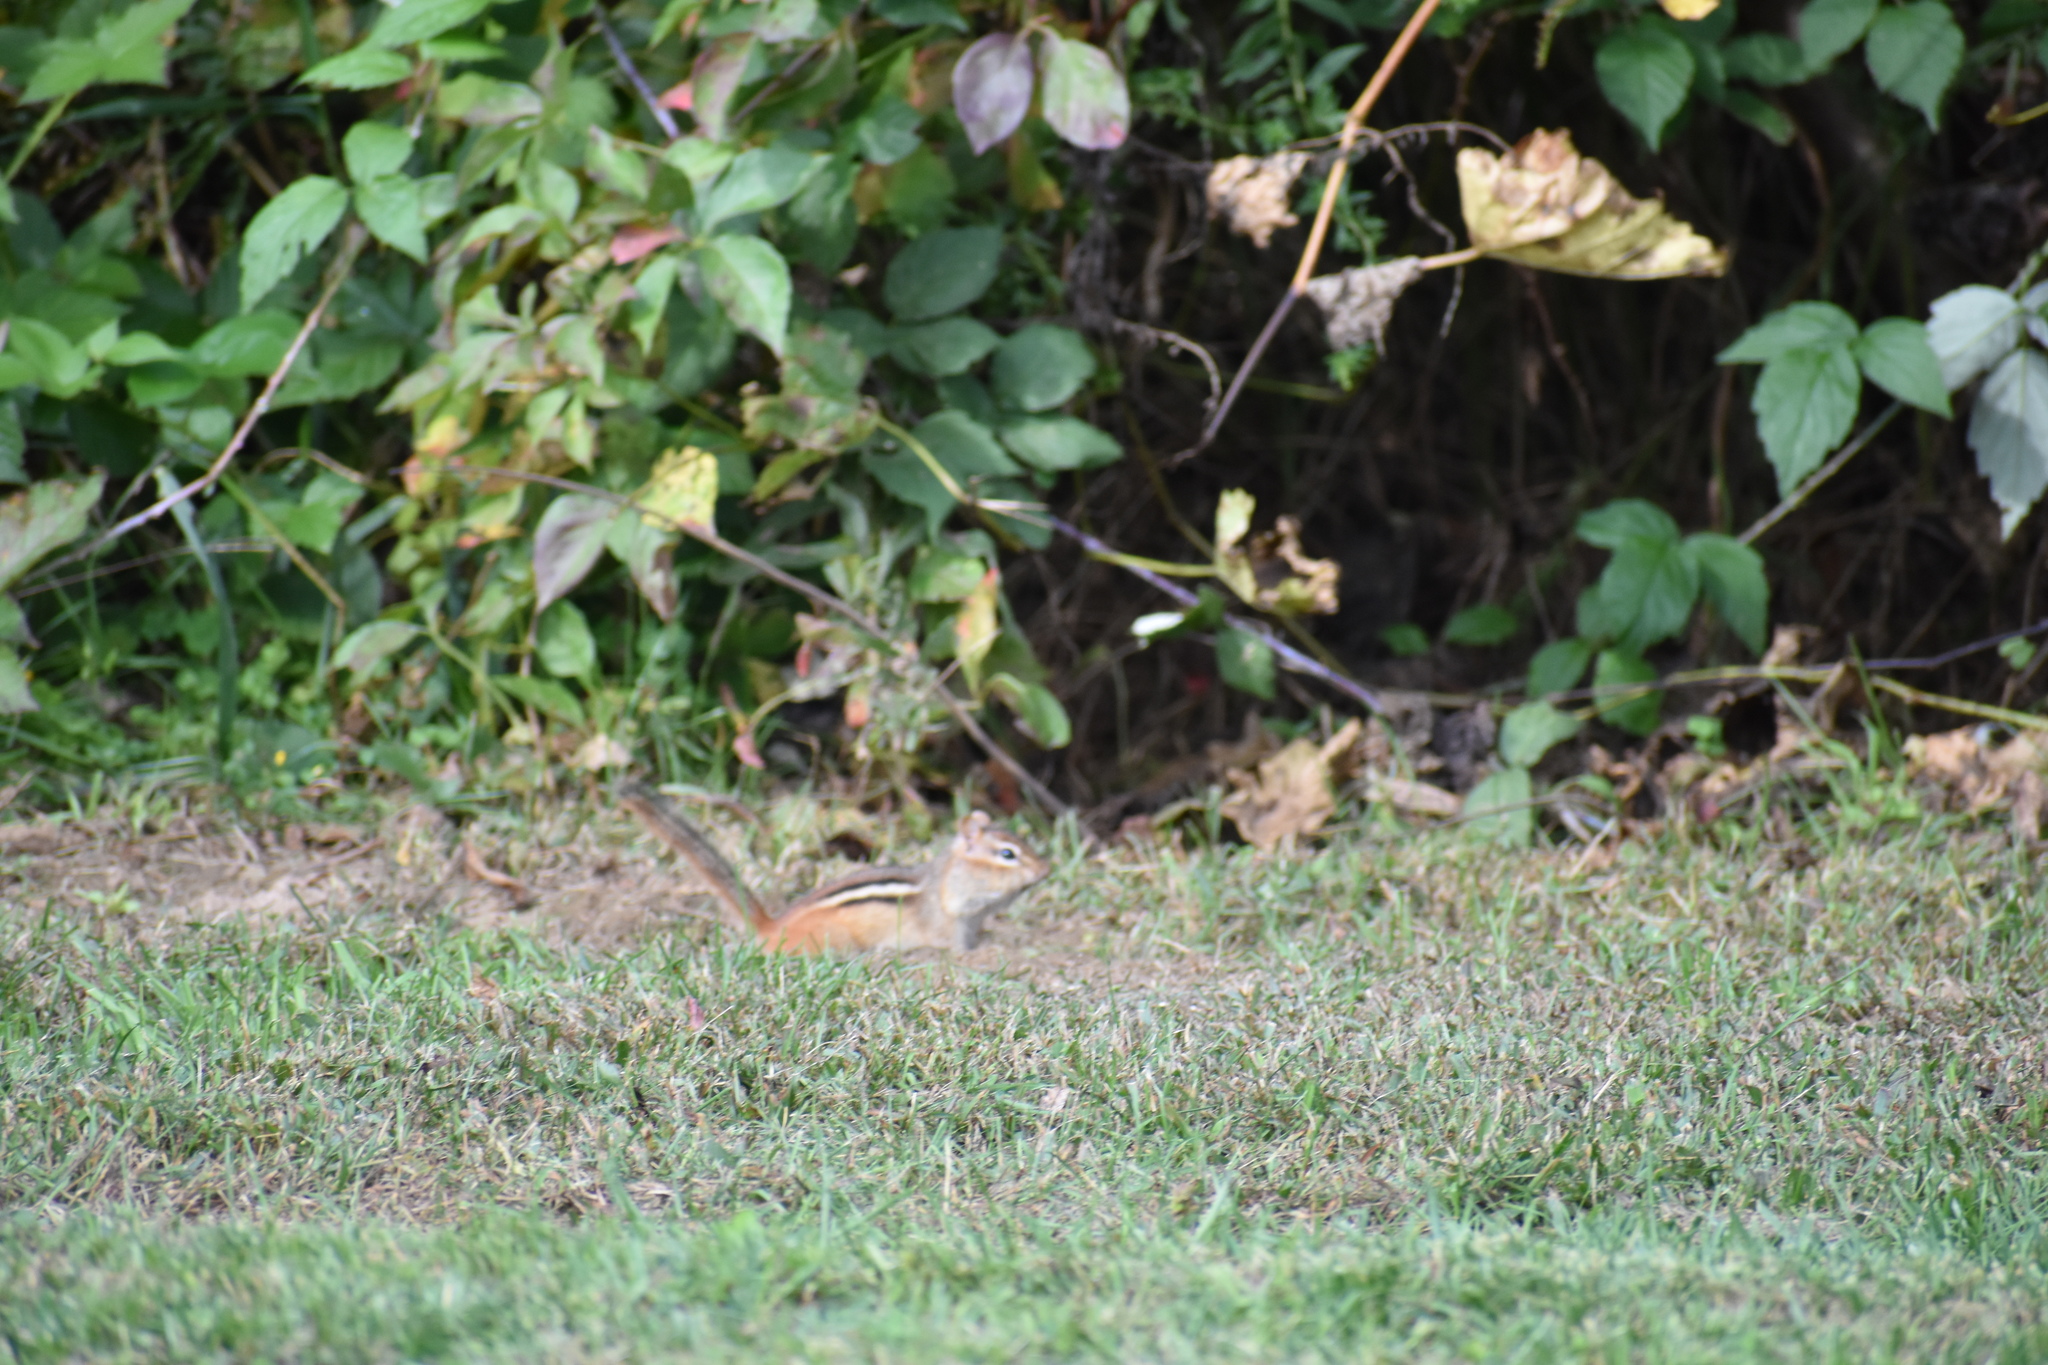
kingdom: Animalia
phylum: Chordata
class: Mammalia
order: Rodentia
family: Sciuridae
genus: Tamias
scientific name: Tamias striatus
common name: Eastern chipmunk
